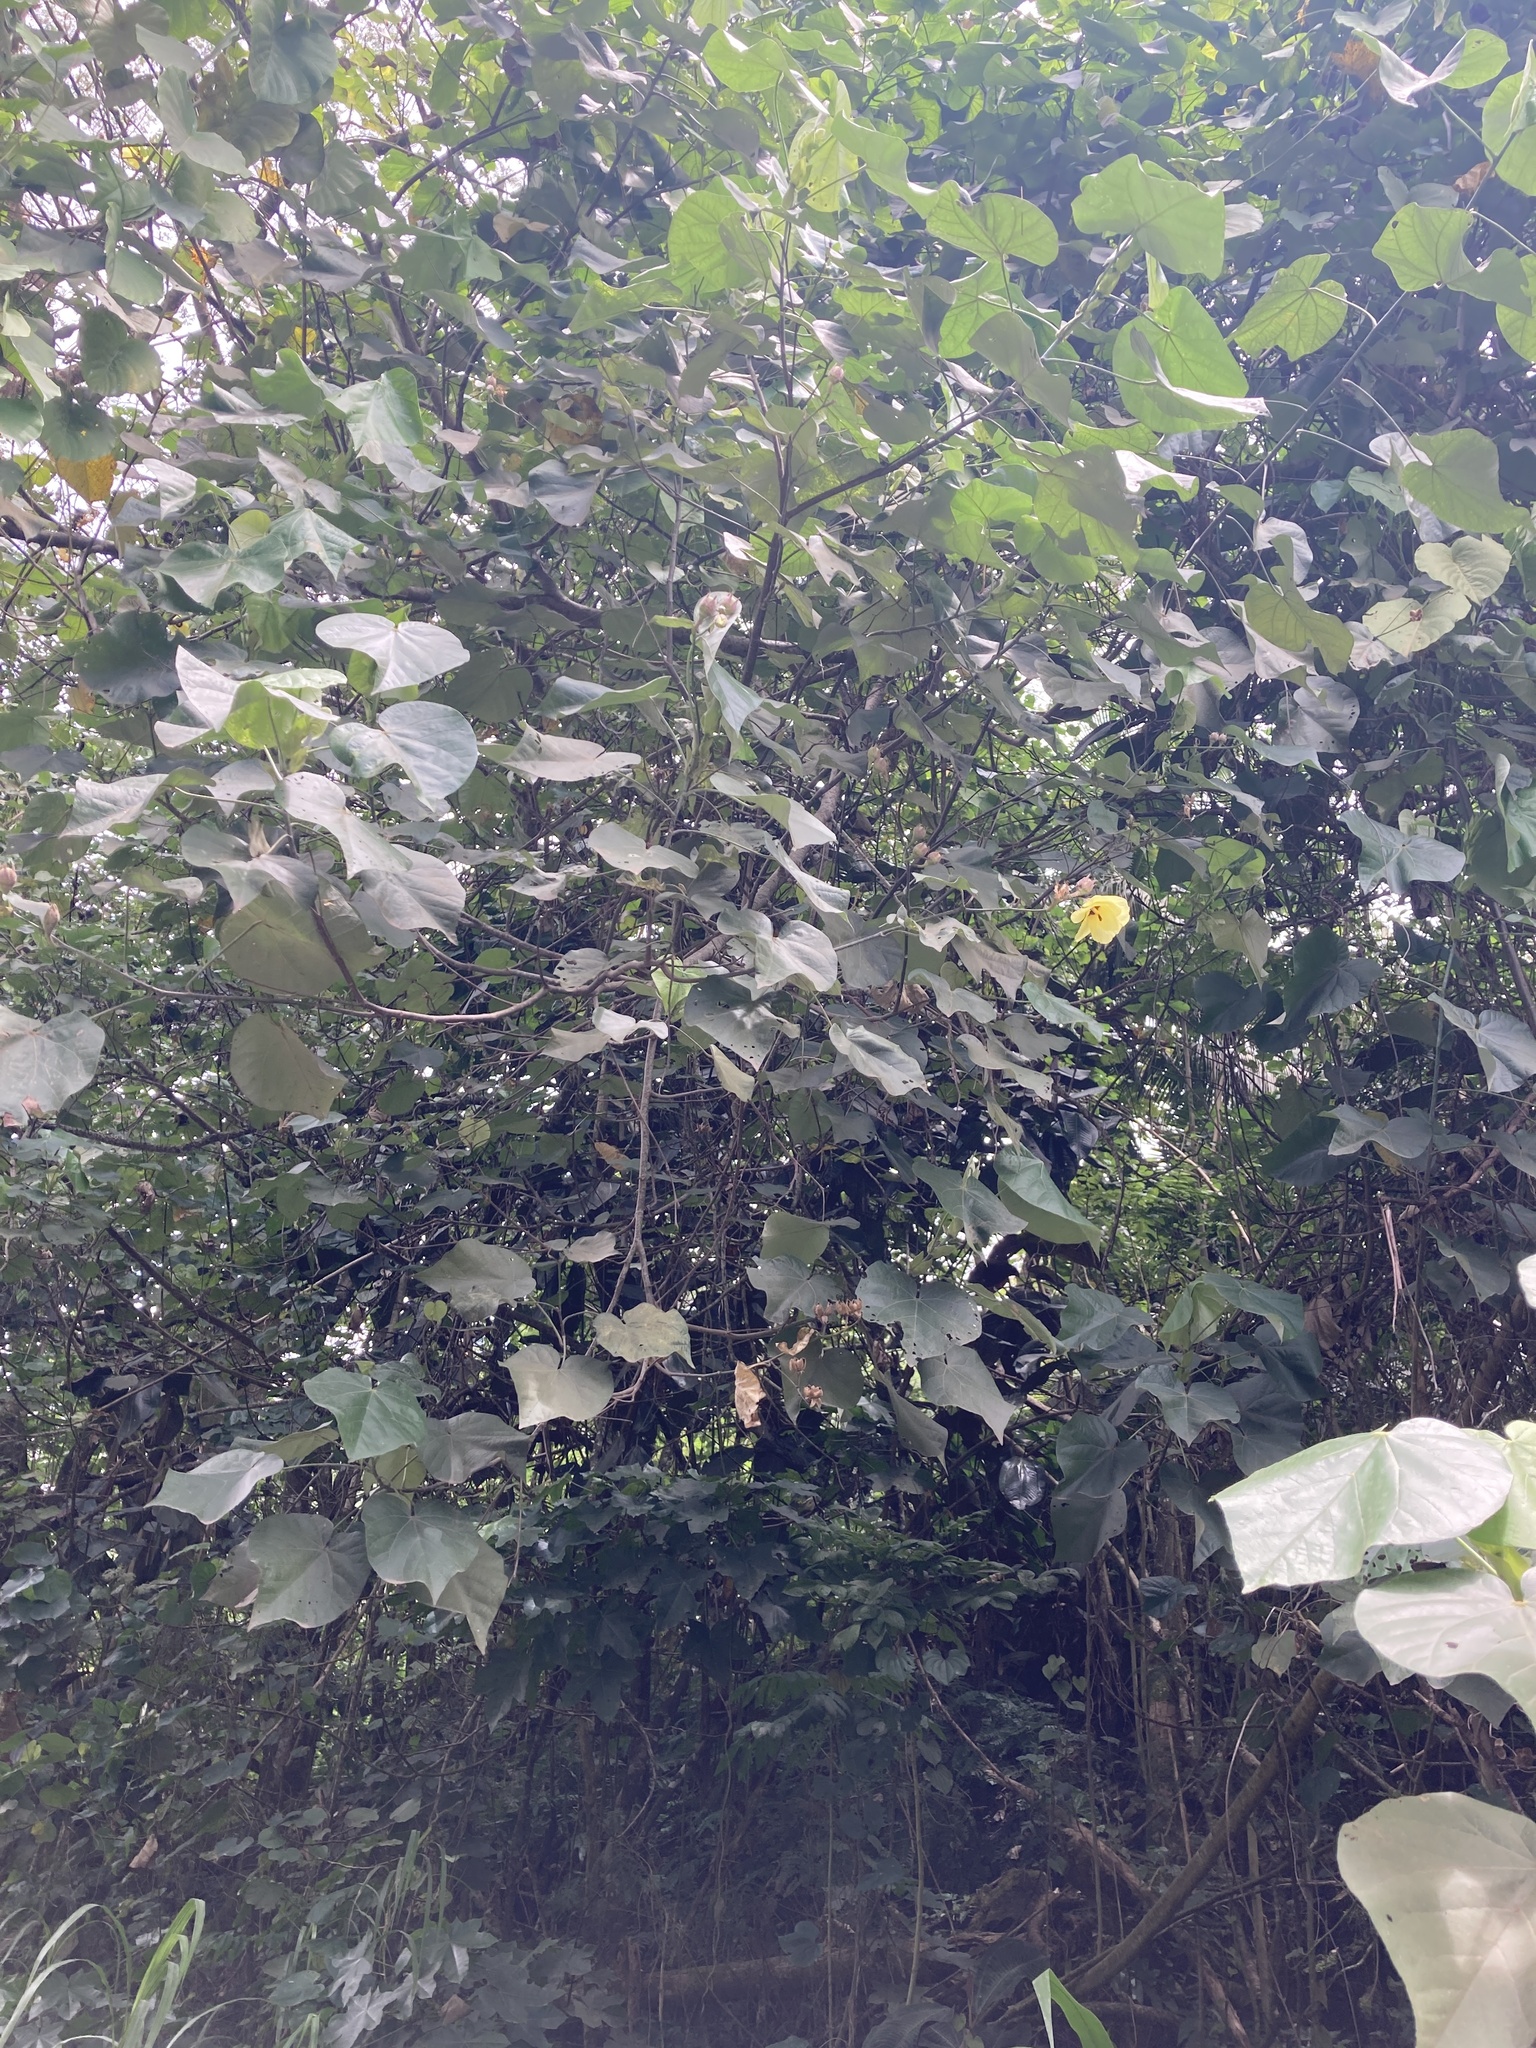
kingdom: Plantae
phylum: Tracheophyta
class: Magnoliopsida
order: Malvales
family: Malvaceae
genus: Talipariti
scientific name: Talipariti tiliaceum
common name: Sea hibiscus
